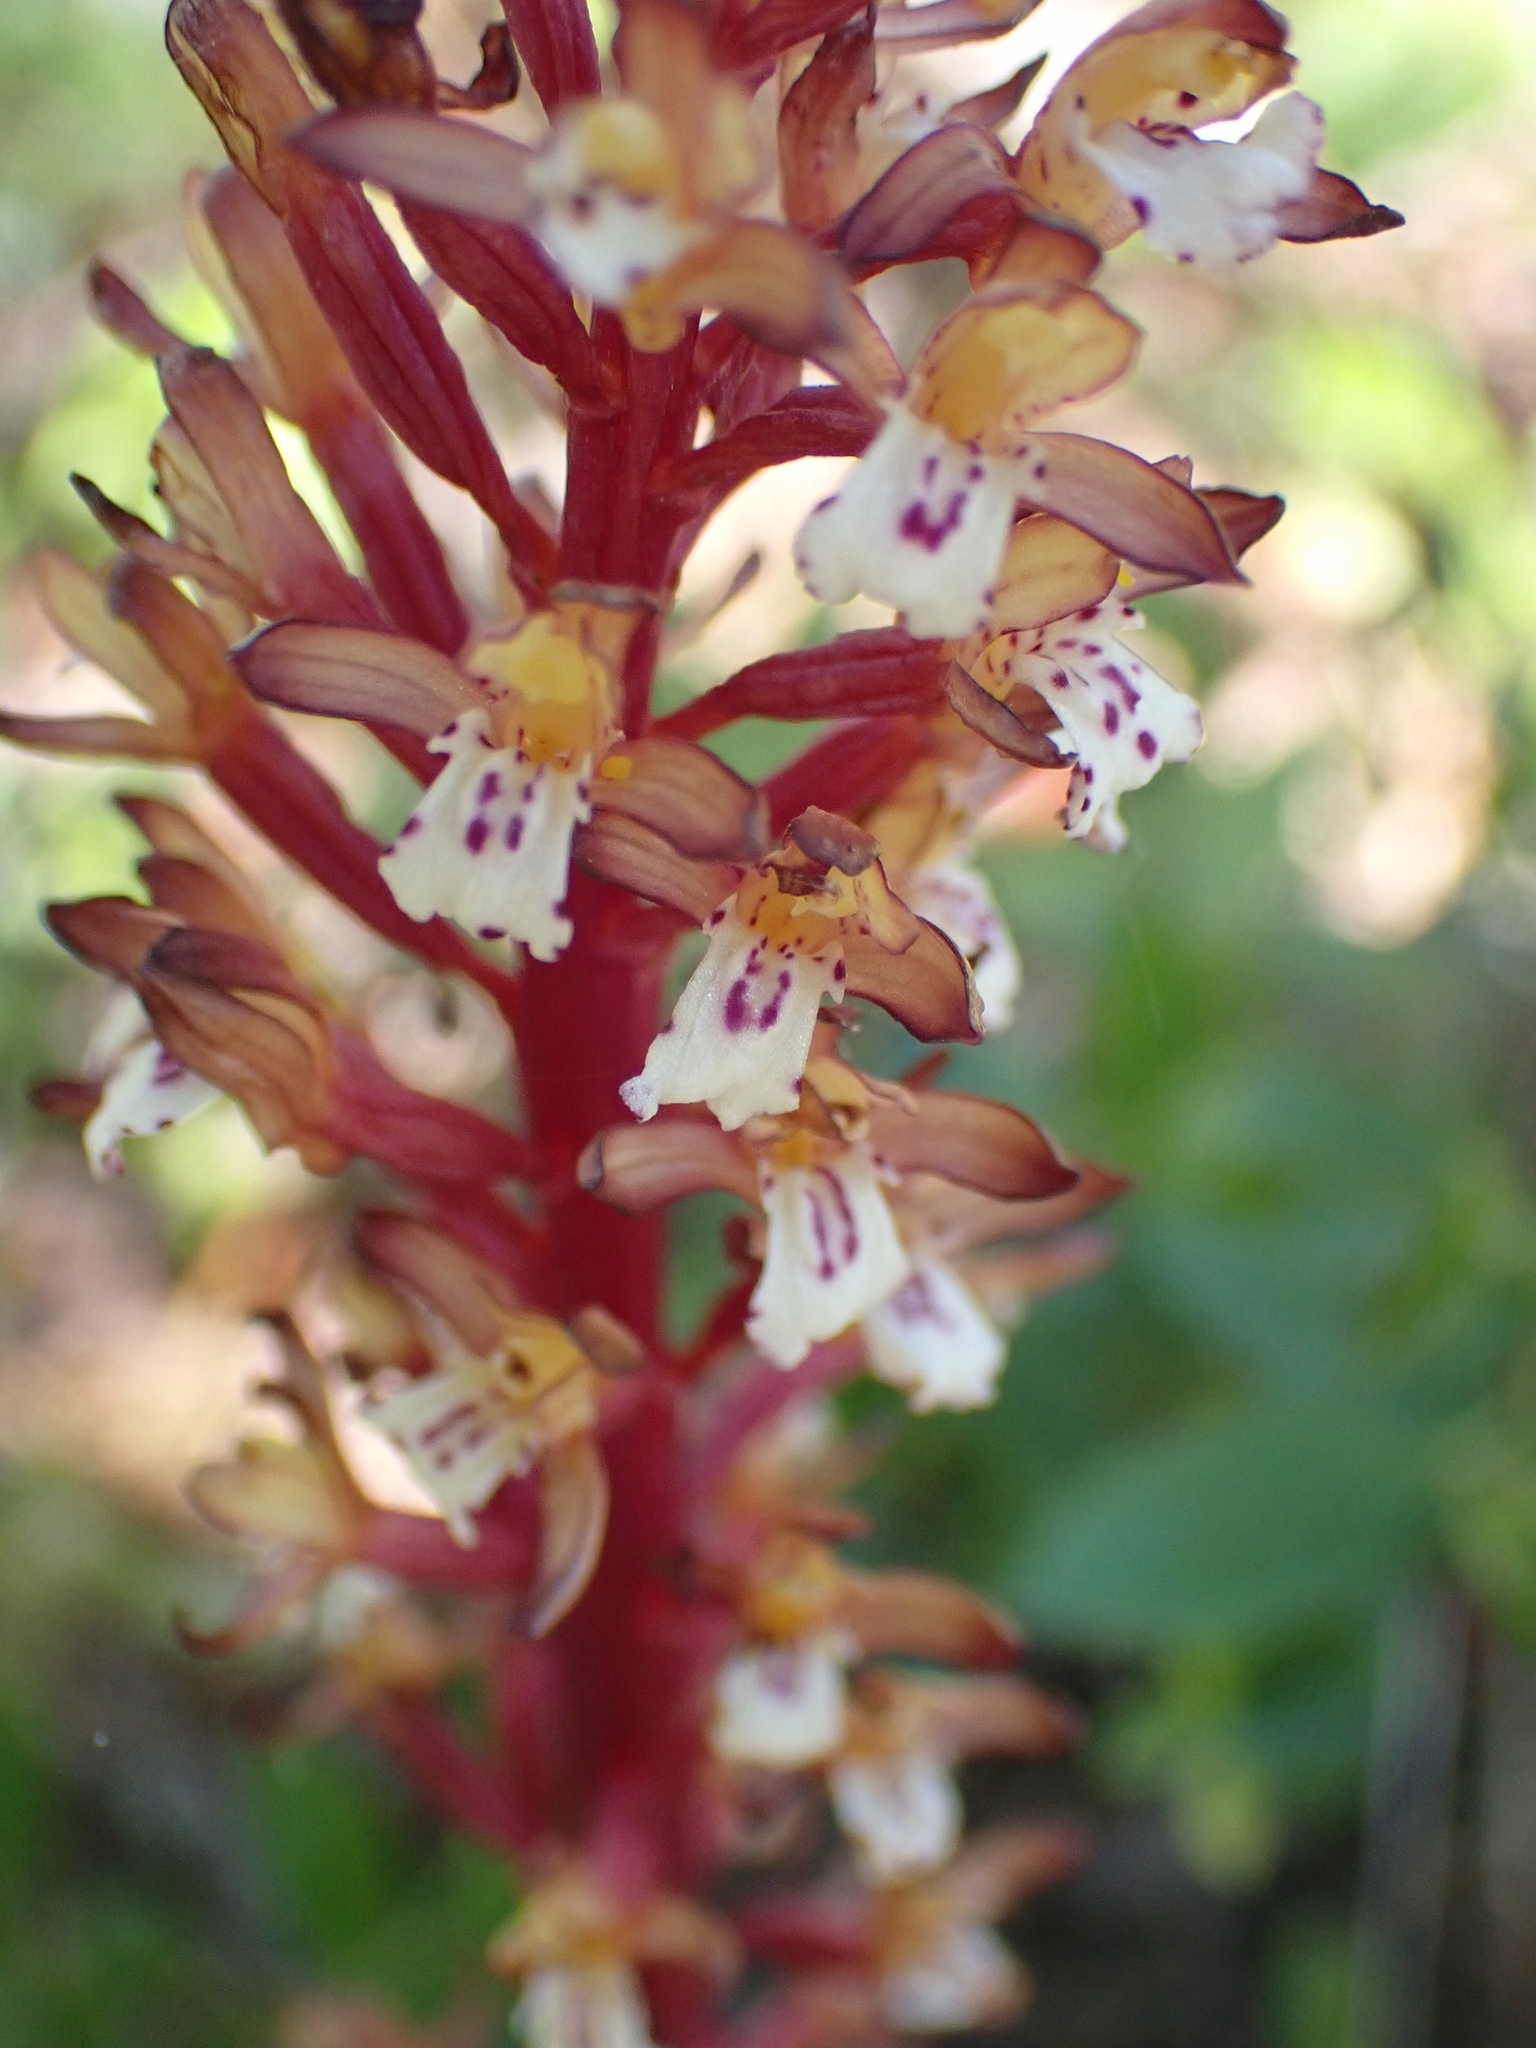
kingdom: Plantae
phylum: Tracheophyta
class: Liliopsida
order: Asparagales
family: Orchidaceae
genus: Corallorhiza
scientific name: Corallorhiza maculata
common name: Spotted coralroot
